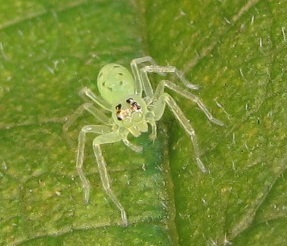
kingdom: Animalia
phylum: Arthropoda
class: Arachnida
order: Araneae
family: Salticidae
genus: Lyssomanes
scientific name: Lyssomanes viridis
